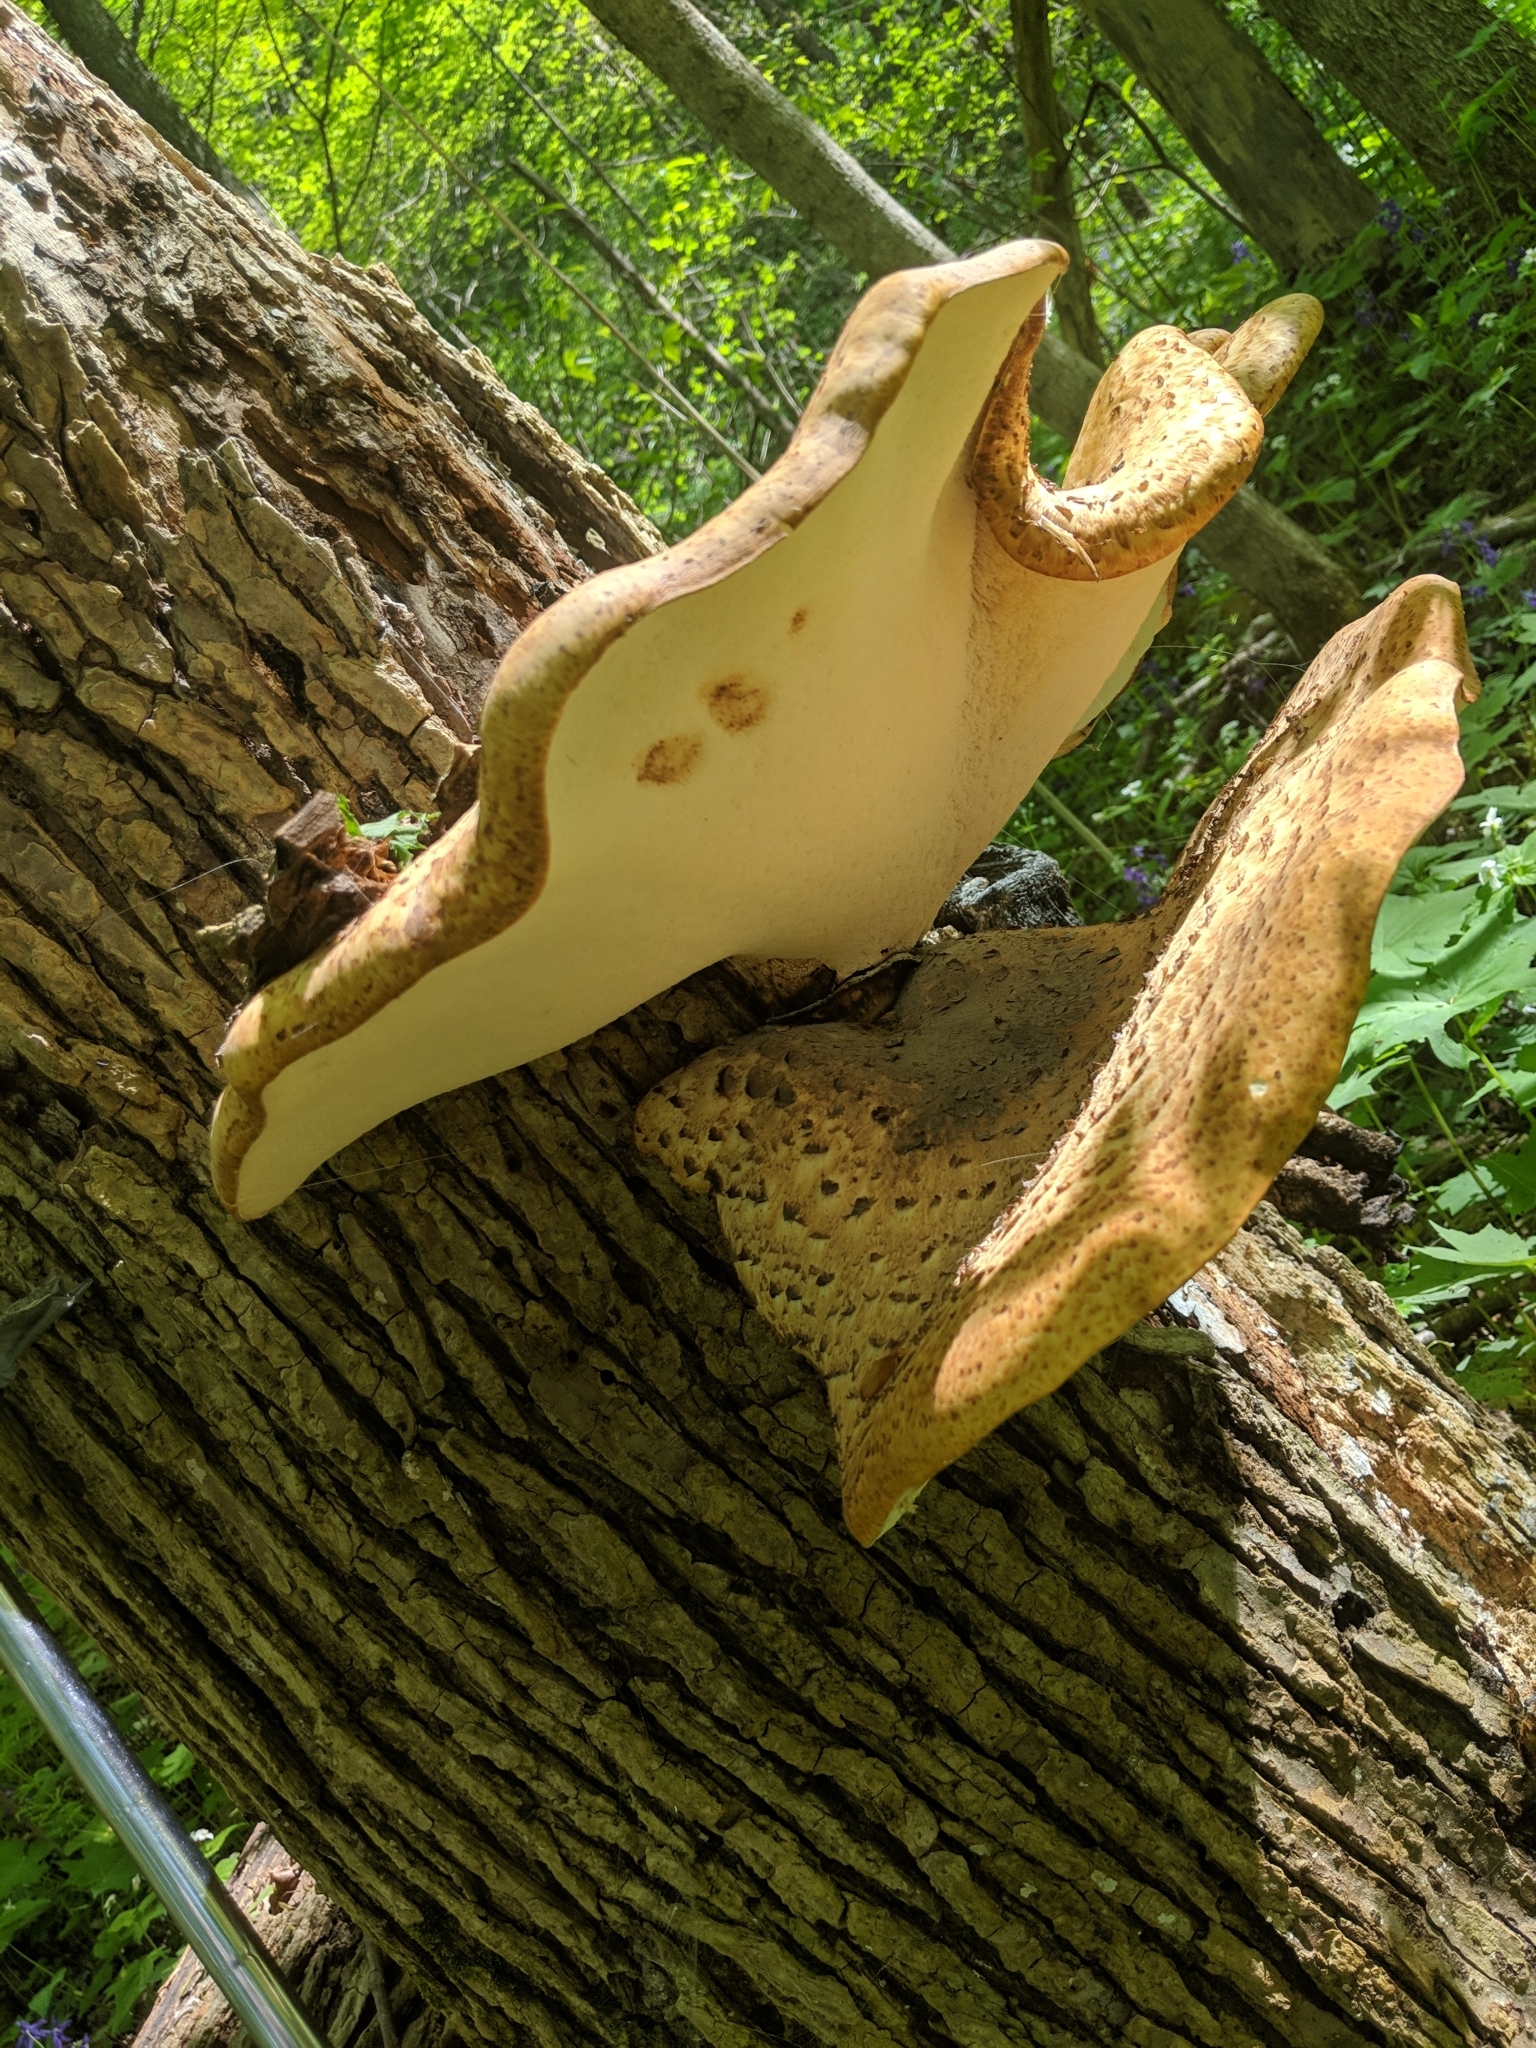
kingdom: Fungi
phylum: Basidiomycota
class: Agaricomycetes
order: Polyporales
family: Polyporaceae
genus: Cerioporus
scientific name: Cerioporus squamosus
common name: Dryad's saddle
